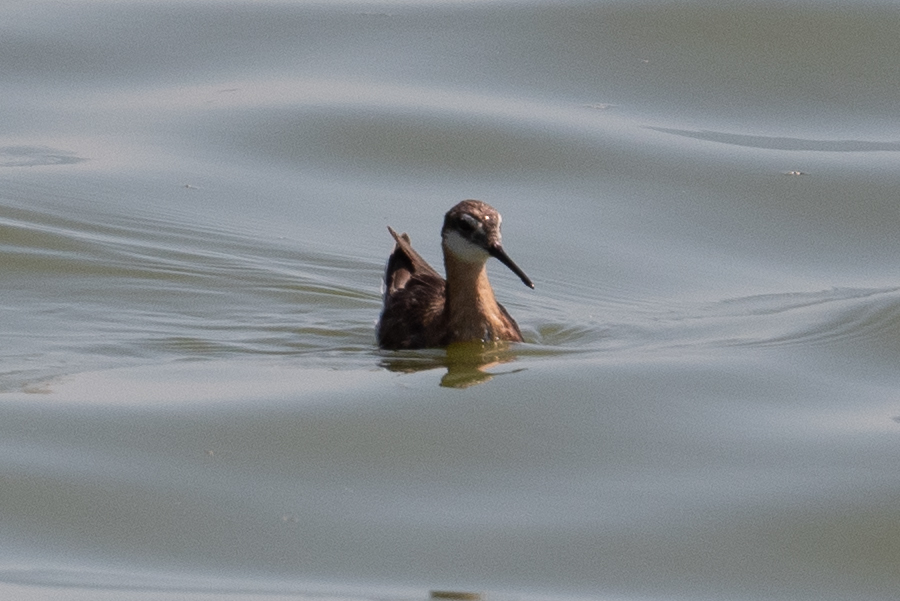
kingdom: Animalia
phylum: Chordata
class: Aves
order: Charadriiformes
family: Scolopacidae
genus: Phalaropus
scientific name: Phalaropus tricolor
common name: Wilson's phalarope
